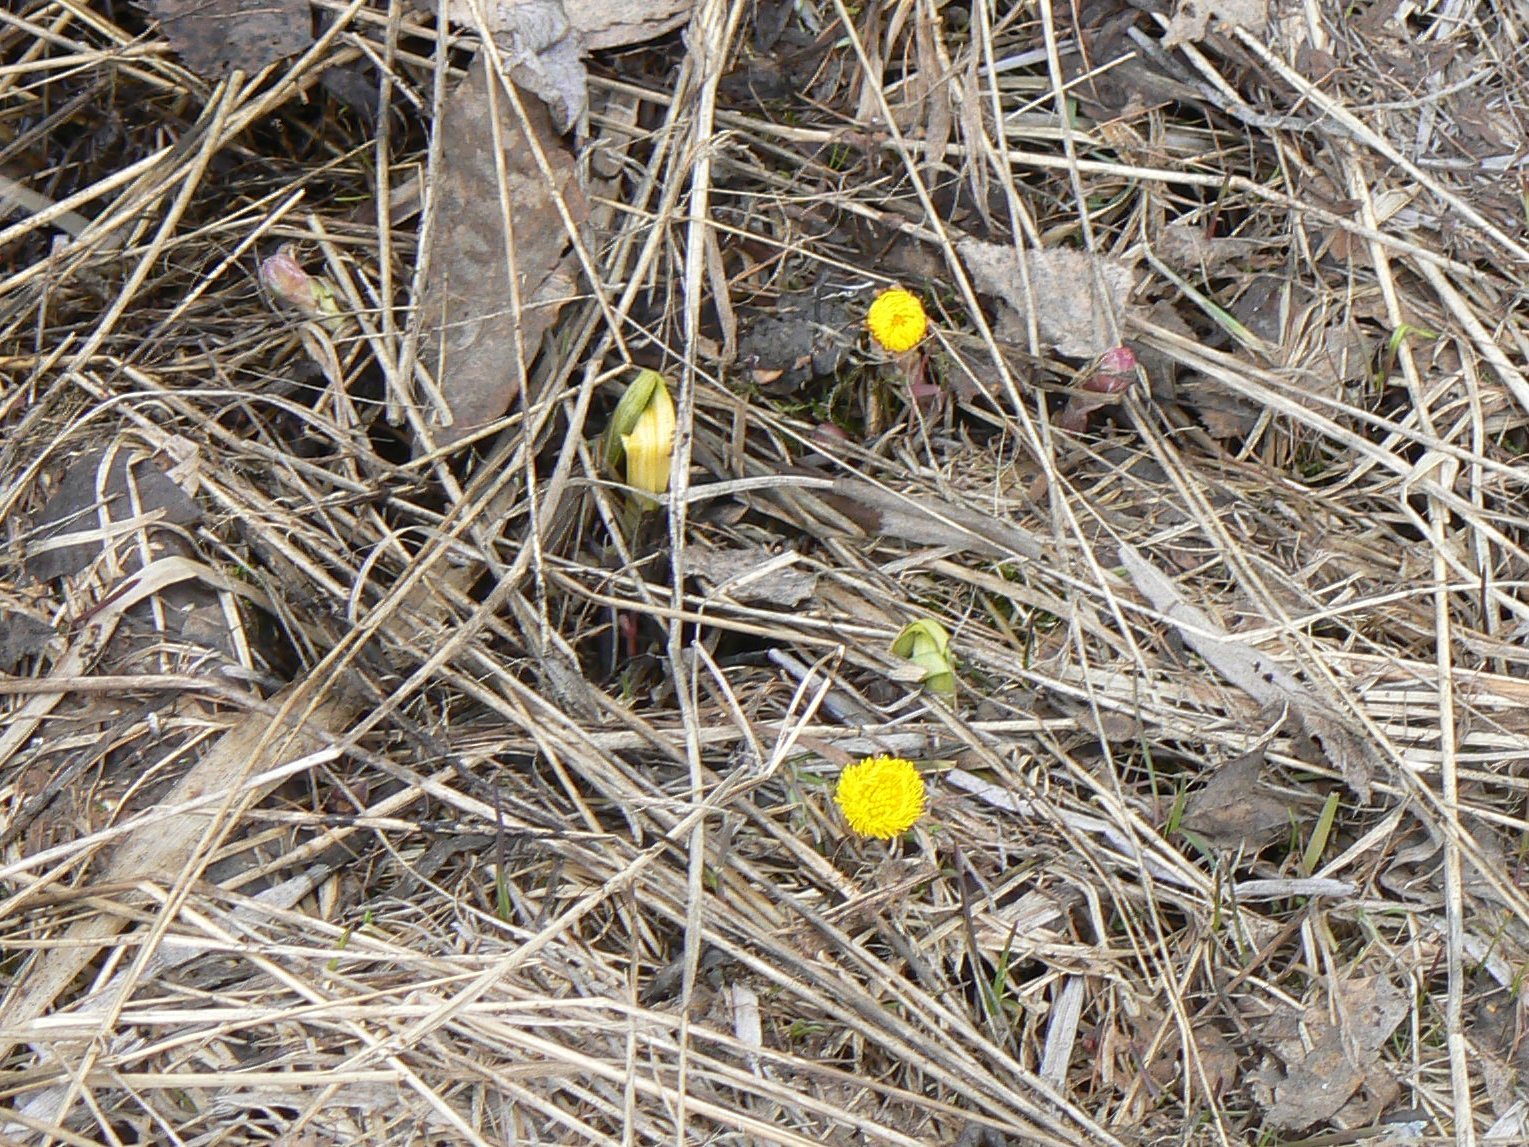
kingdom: Plantae
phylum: Tracheophyta
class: Magnoliopsida
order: Asterales
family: Asteraceae
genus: Tussilago
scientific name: Tussilago farfara
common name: Coltsfoot
